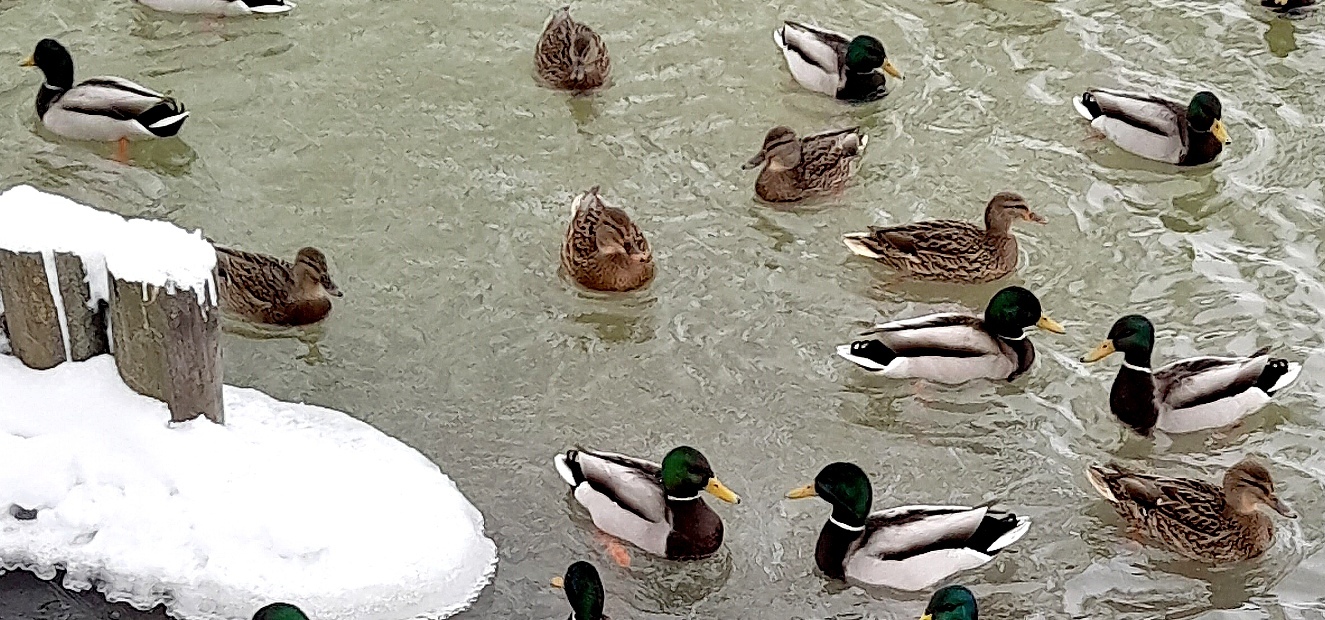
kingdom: Animalia
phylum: Chordata
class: Aves
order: Anseriformes
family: Anatidae
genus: Anas
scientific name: Anas platyrhynchos
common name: Mallard
